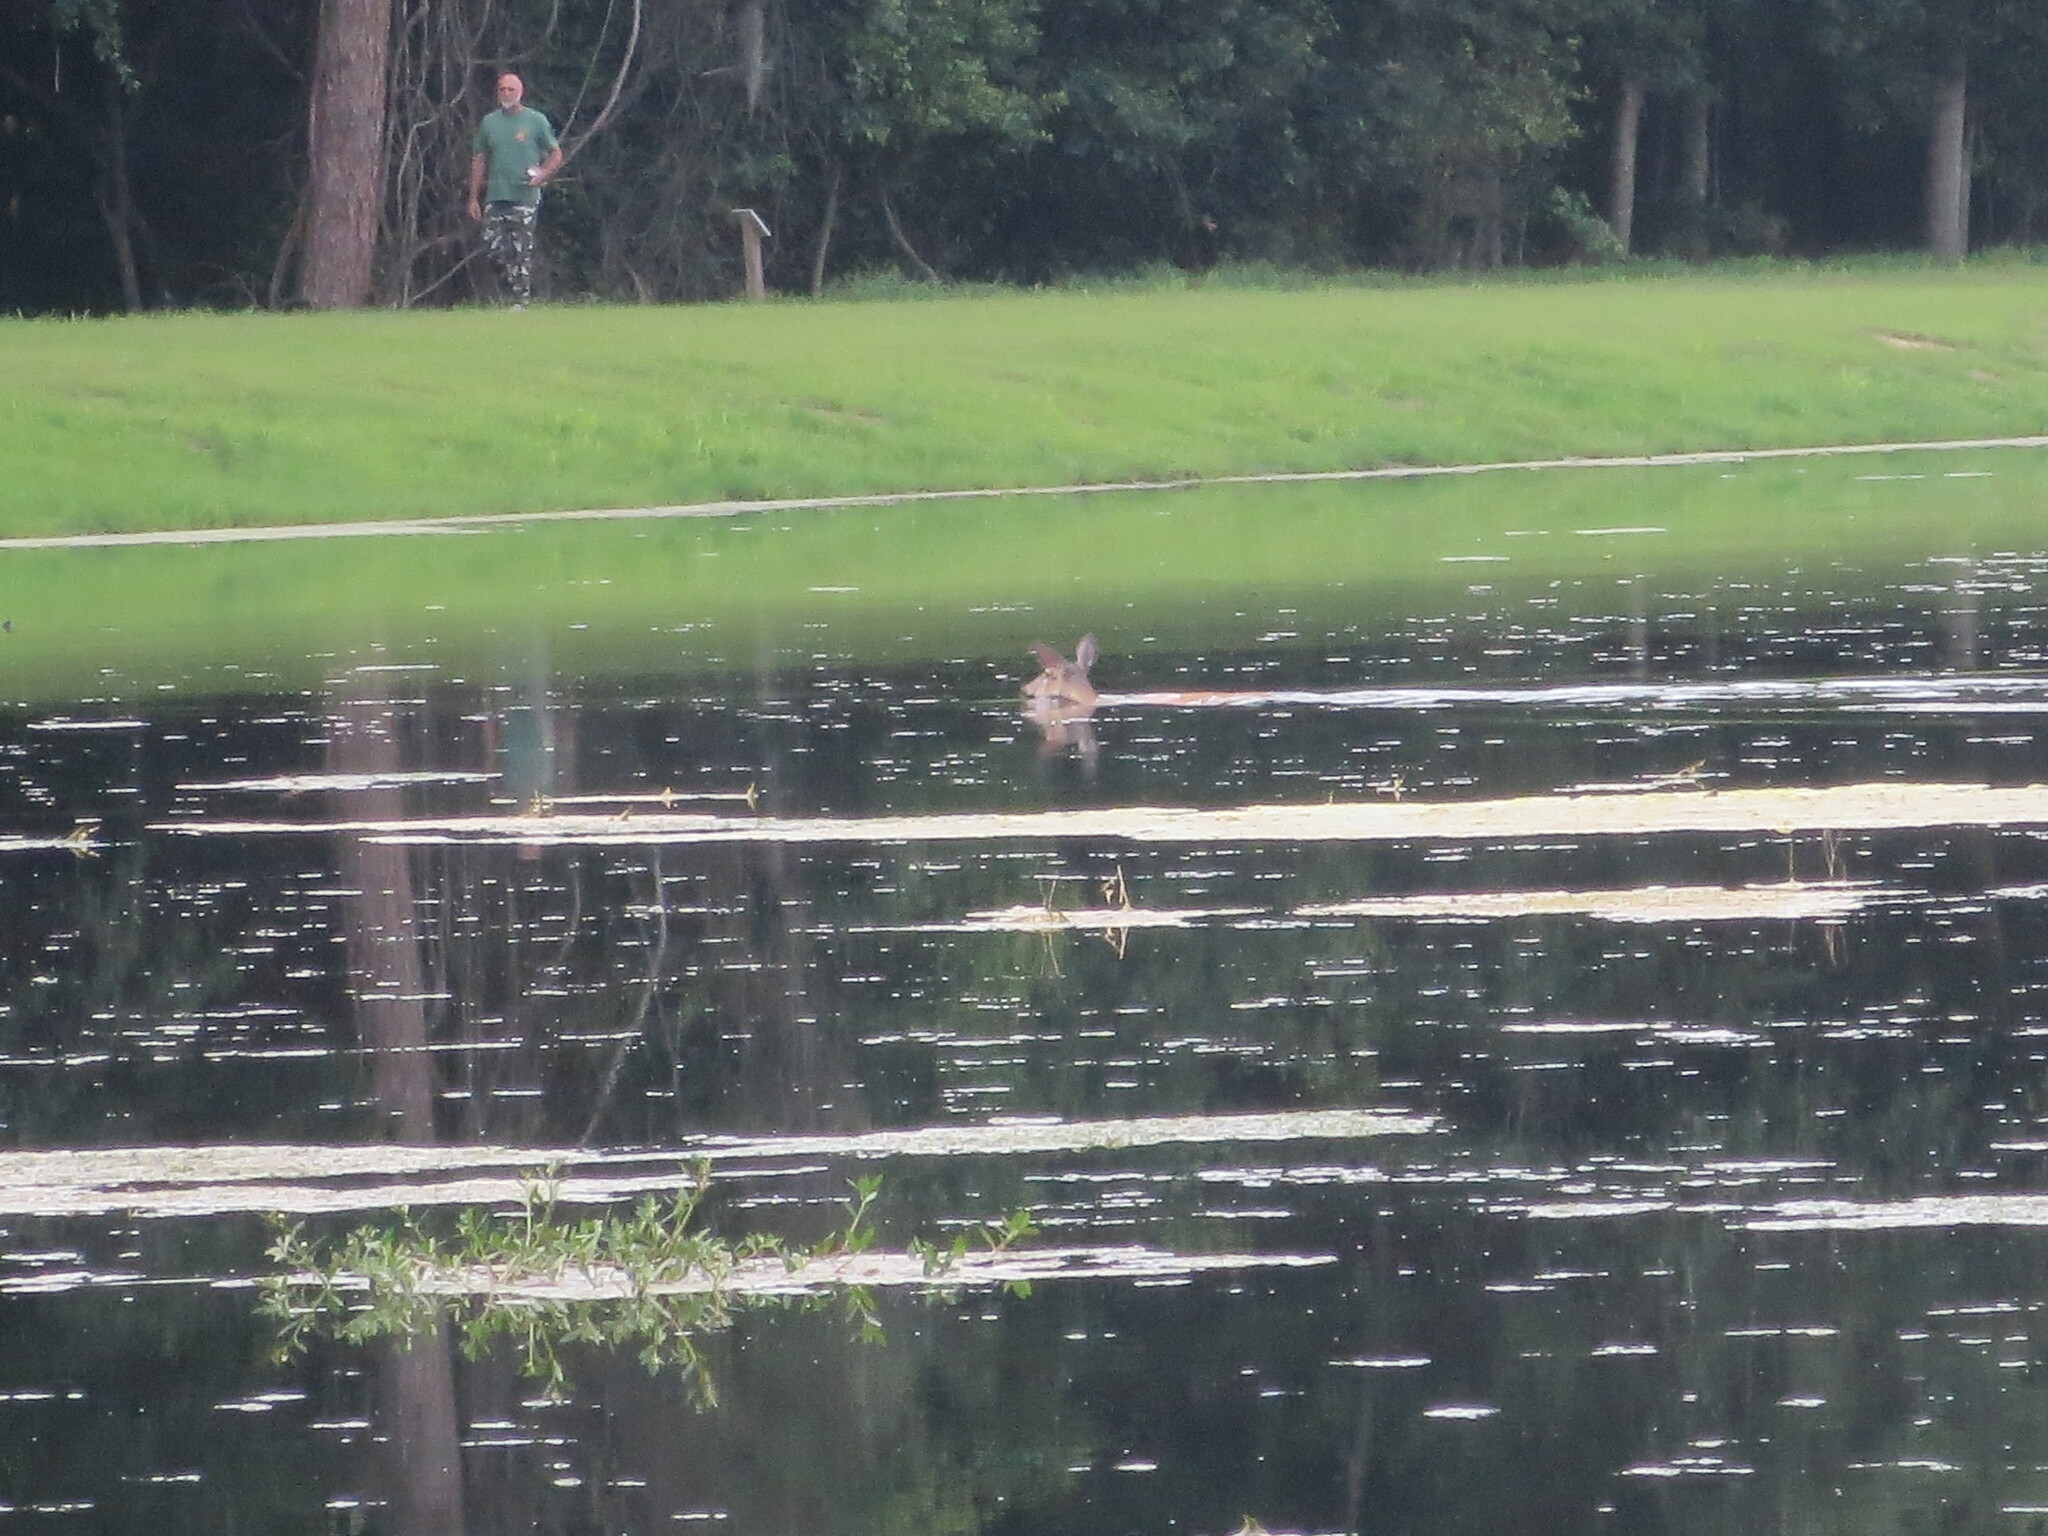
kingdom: Animalia
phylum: Chordata
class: Mammalia
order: Artiodactyla
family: Cervidae
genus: Odocoileus
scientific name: Odocoileus virginianus
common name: White-tailed deer
